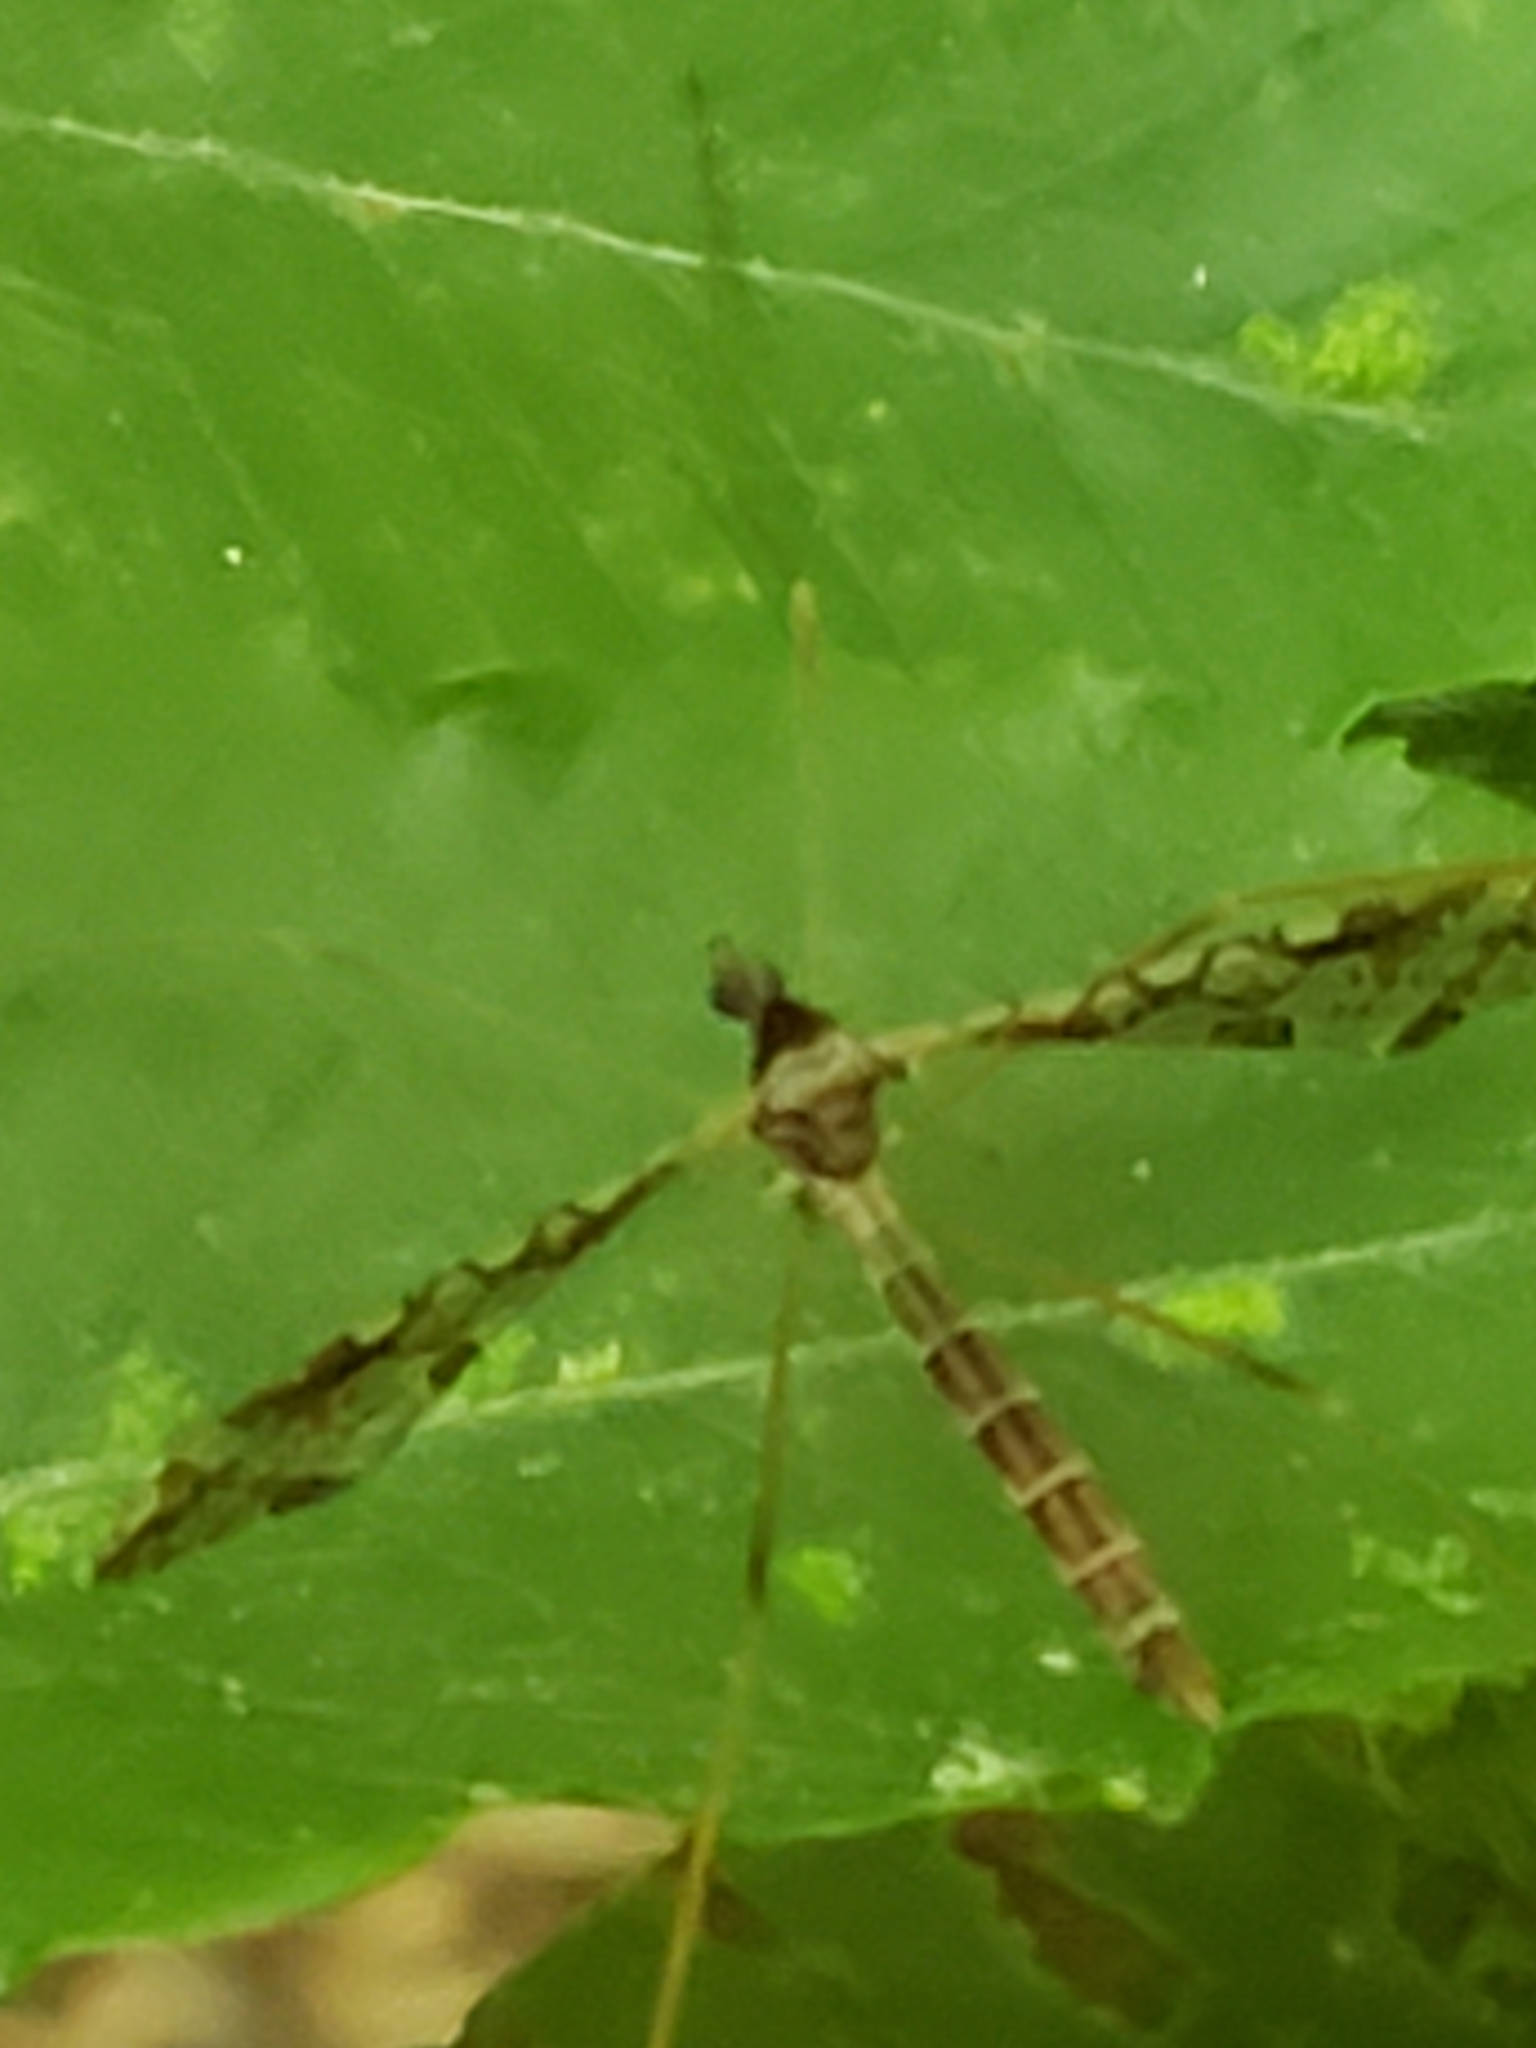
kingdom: Animalia
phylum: Arthropoda
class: Insecta
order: Diptera
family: Limoniidae
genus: Epiphragma
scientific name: Epiphragma solatrix
